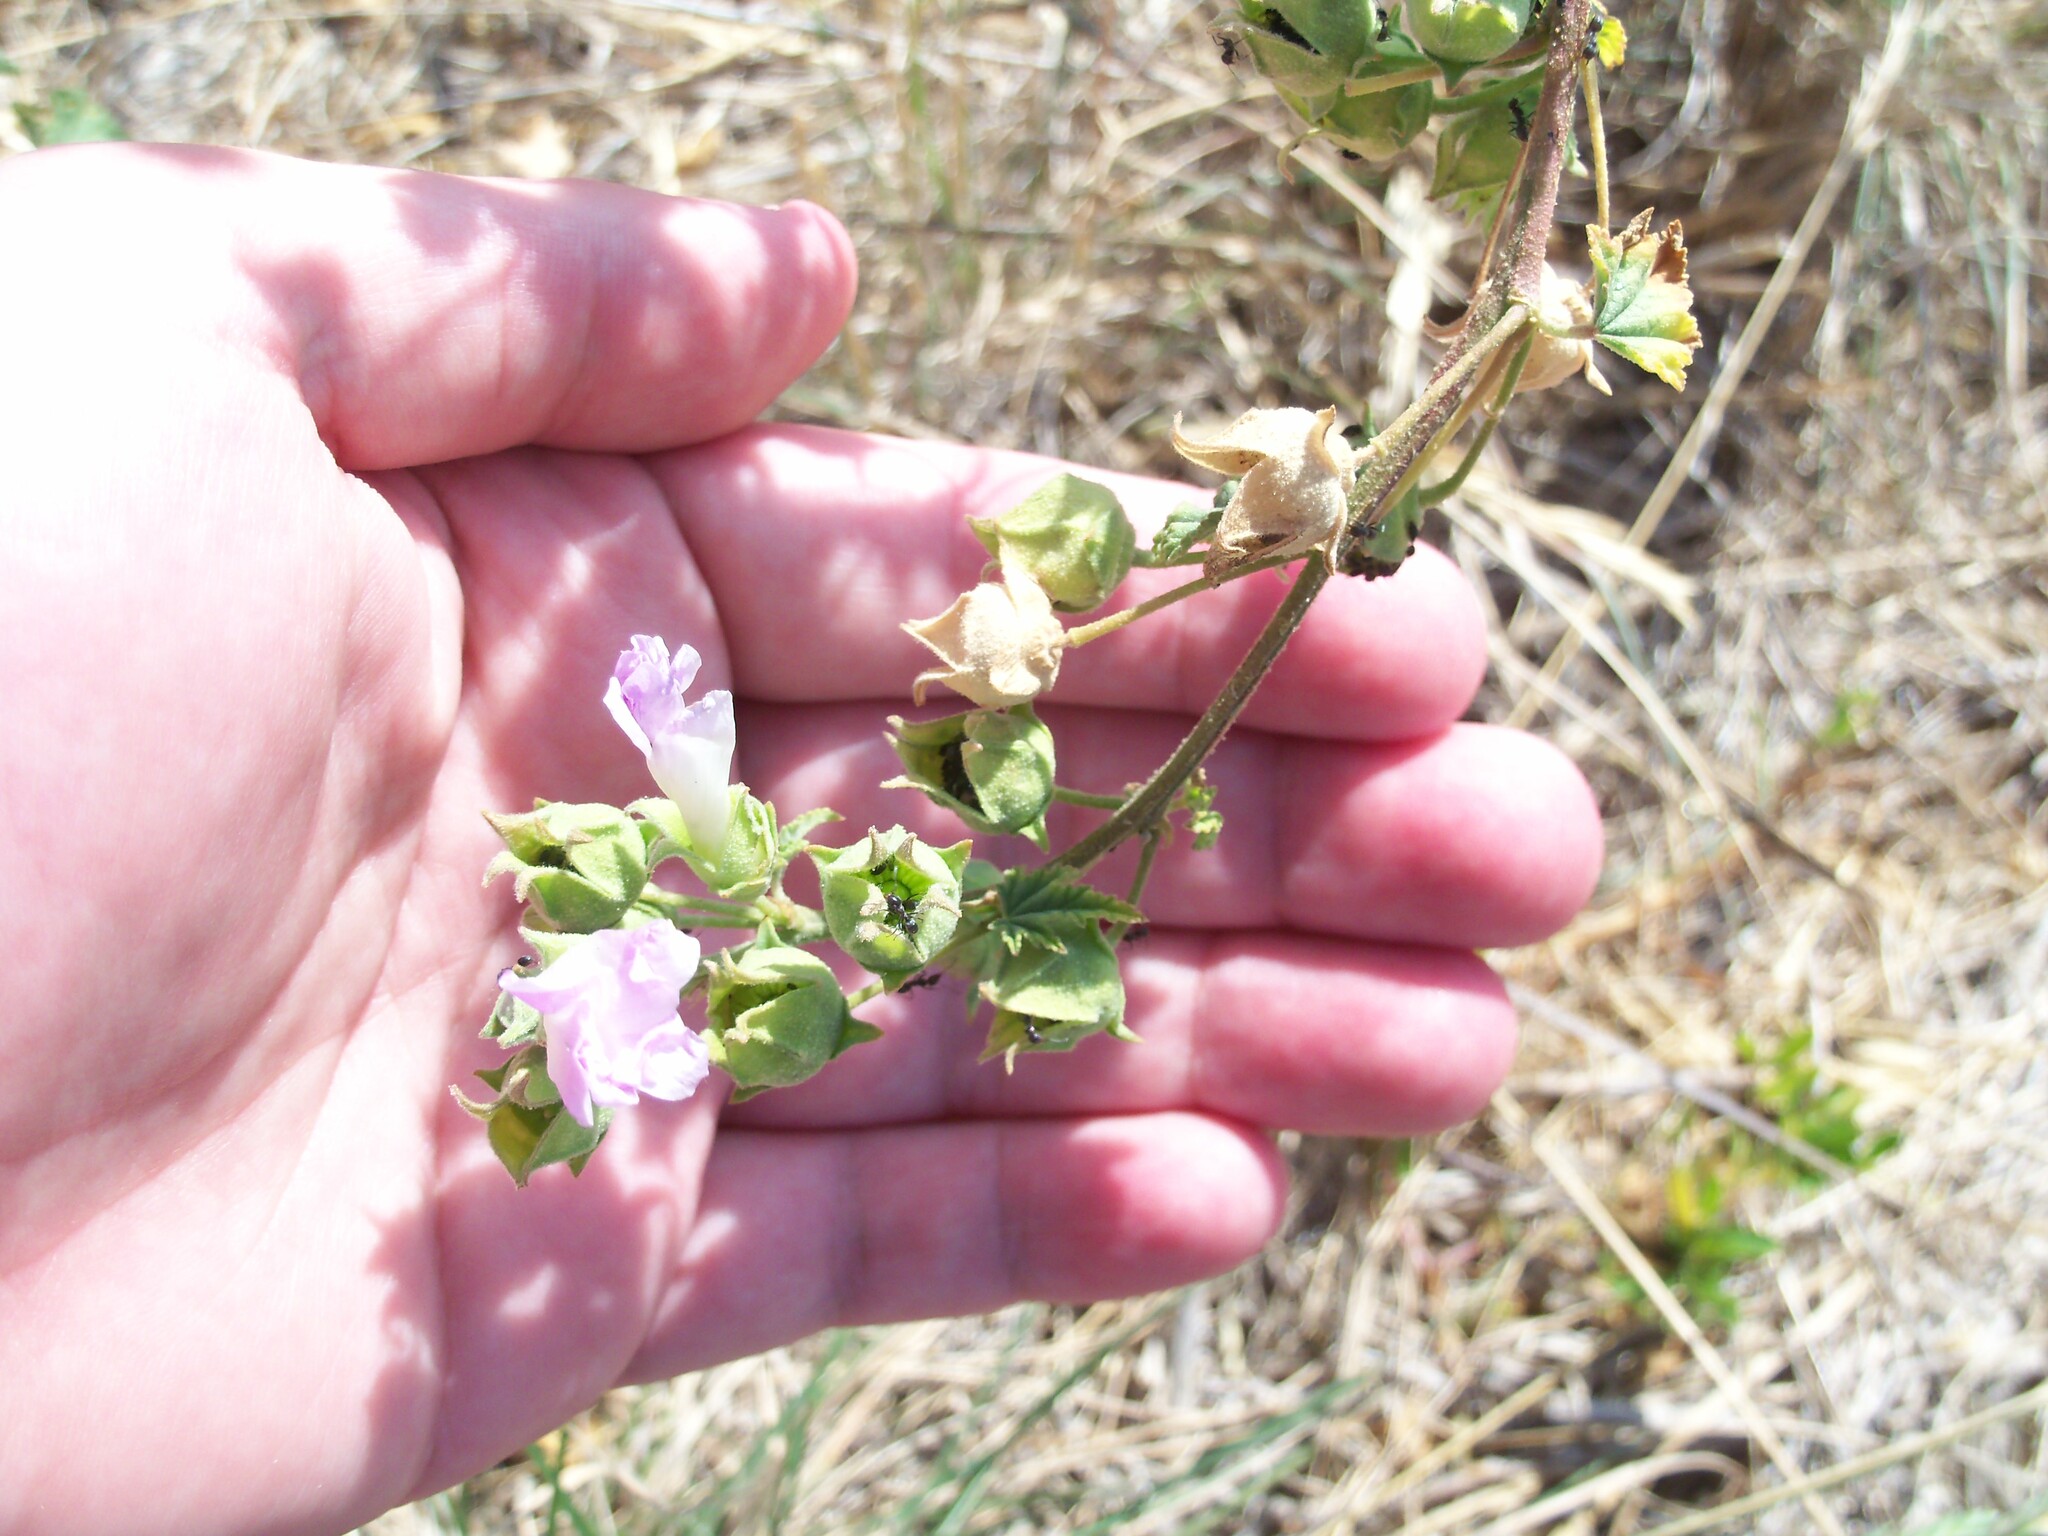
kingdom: Plantae
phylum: Tracheophyta
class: Magnoliopsida
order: Malvales
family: Malvaceae
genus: Malva
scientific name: Malva preissiana
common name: Australian-hollyhock
